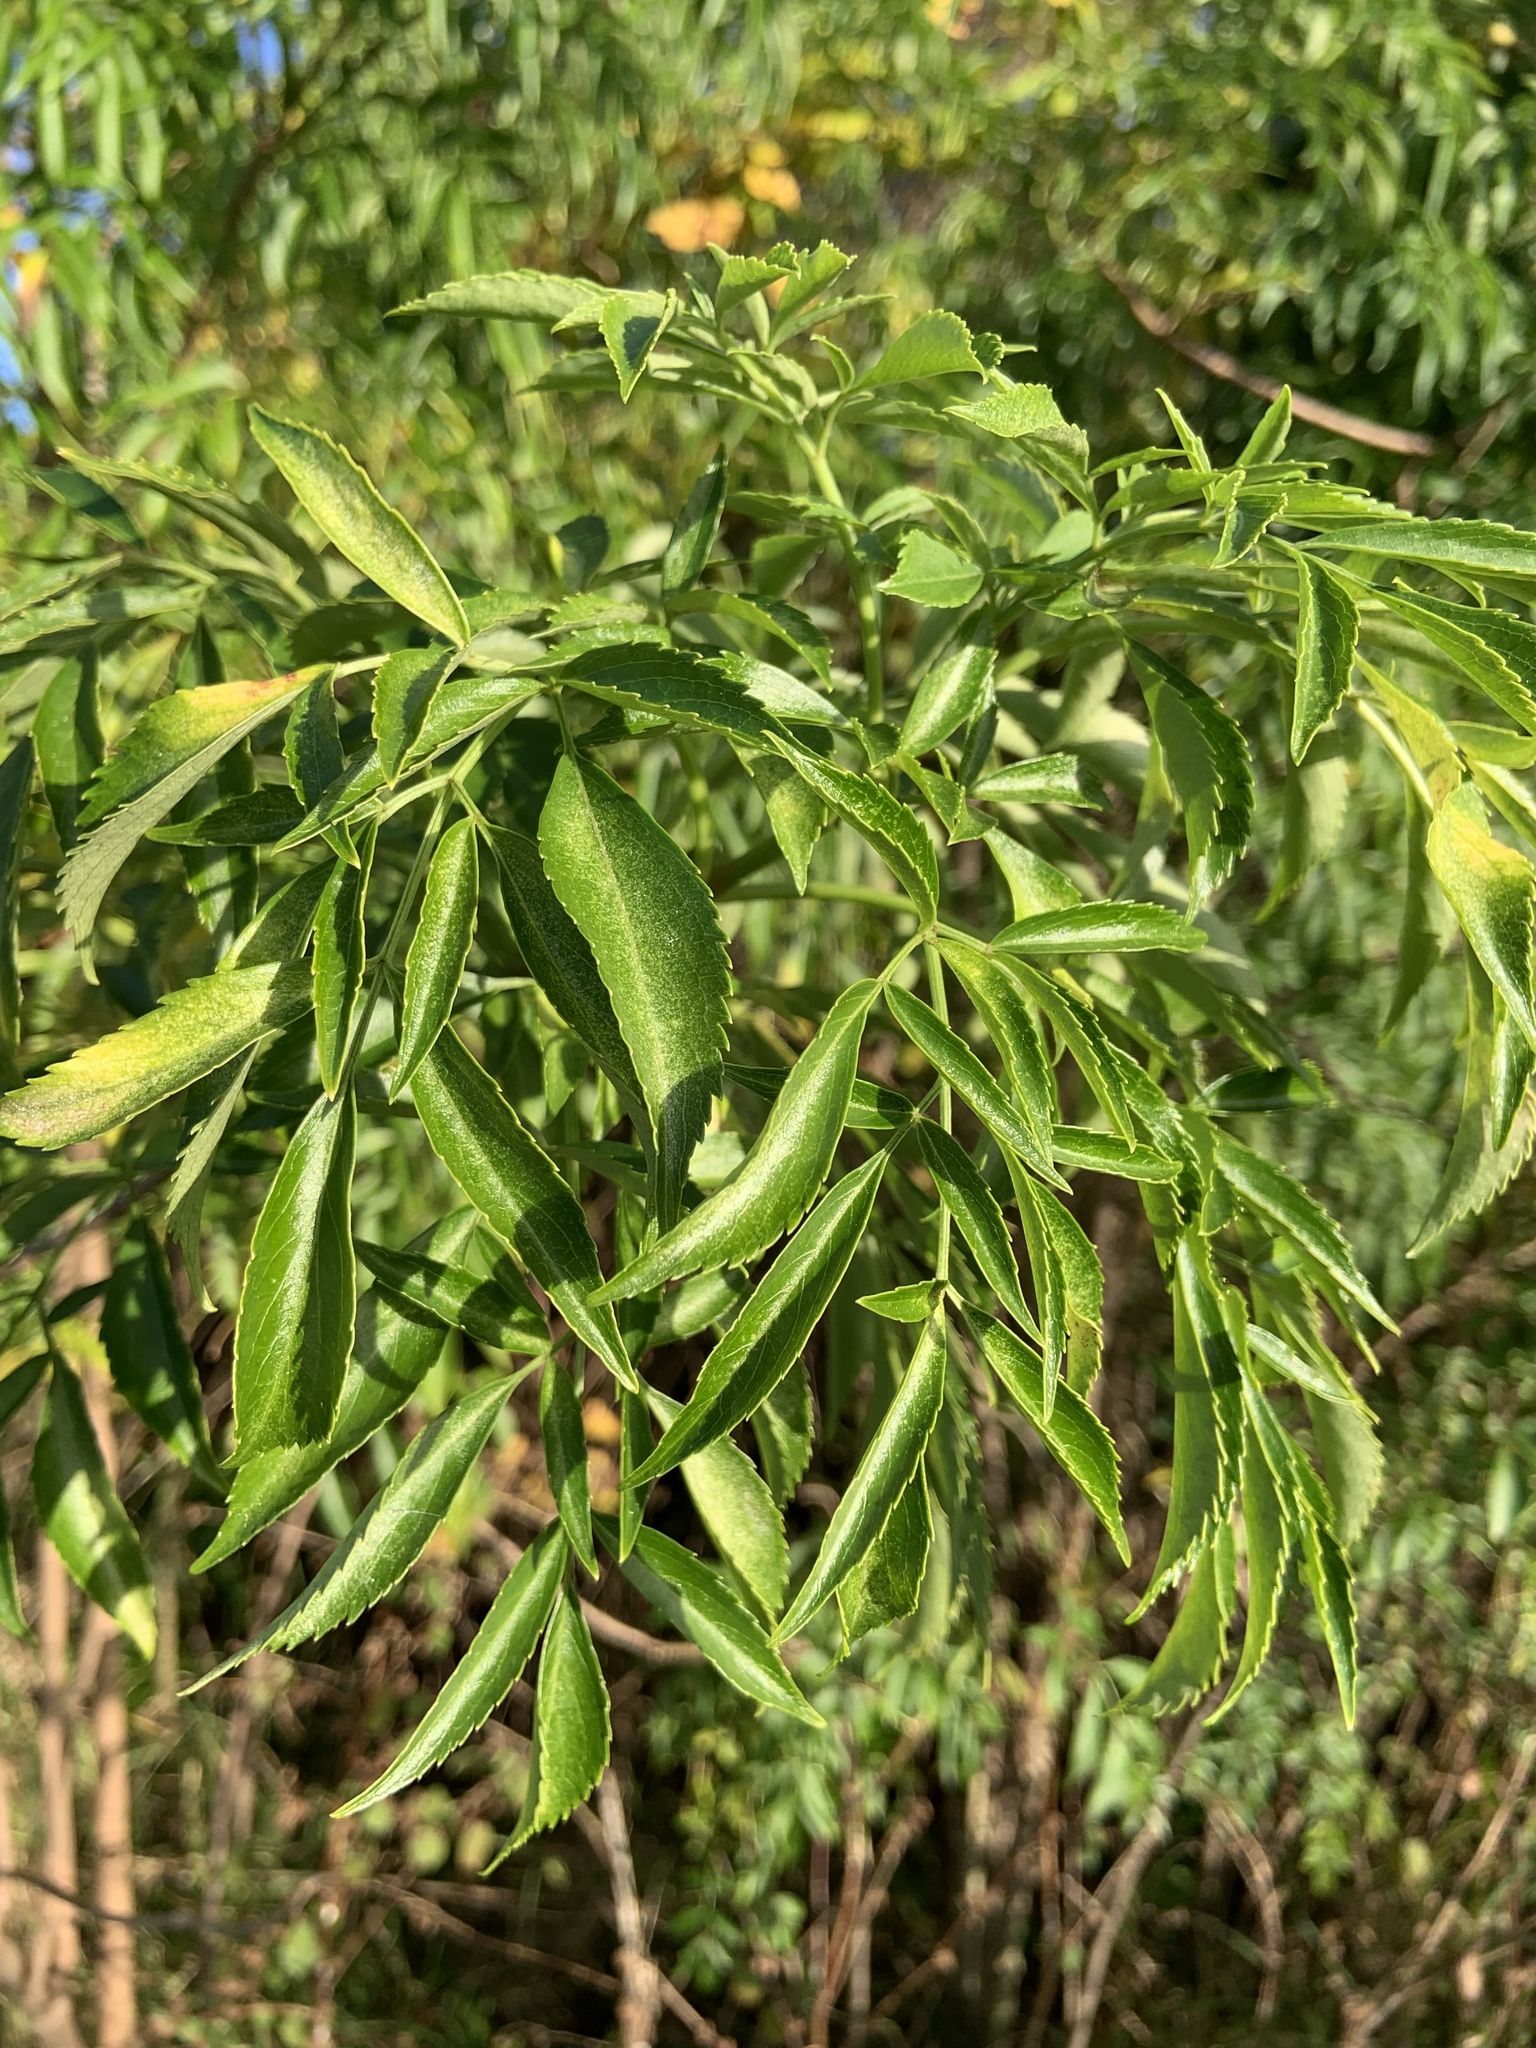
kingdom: Plantae
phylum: Tracheophyta
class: Magnoliopsida
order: Dipsacales
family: Viburnaceae
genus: Sambucus
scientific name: Sambucus canadensis
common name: American elder
